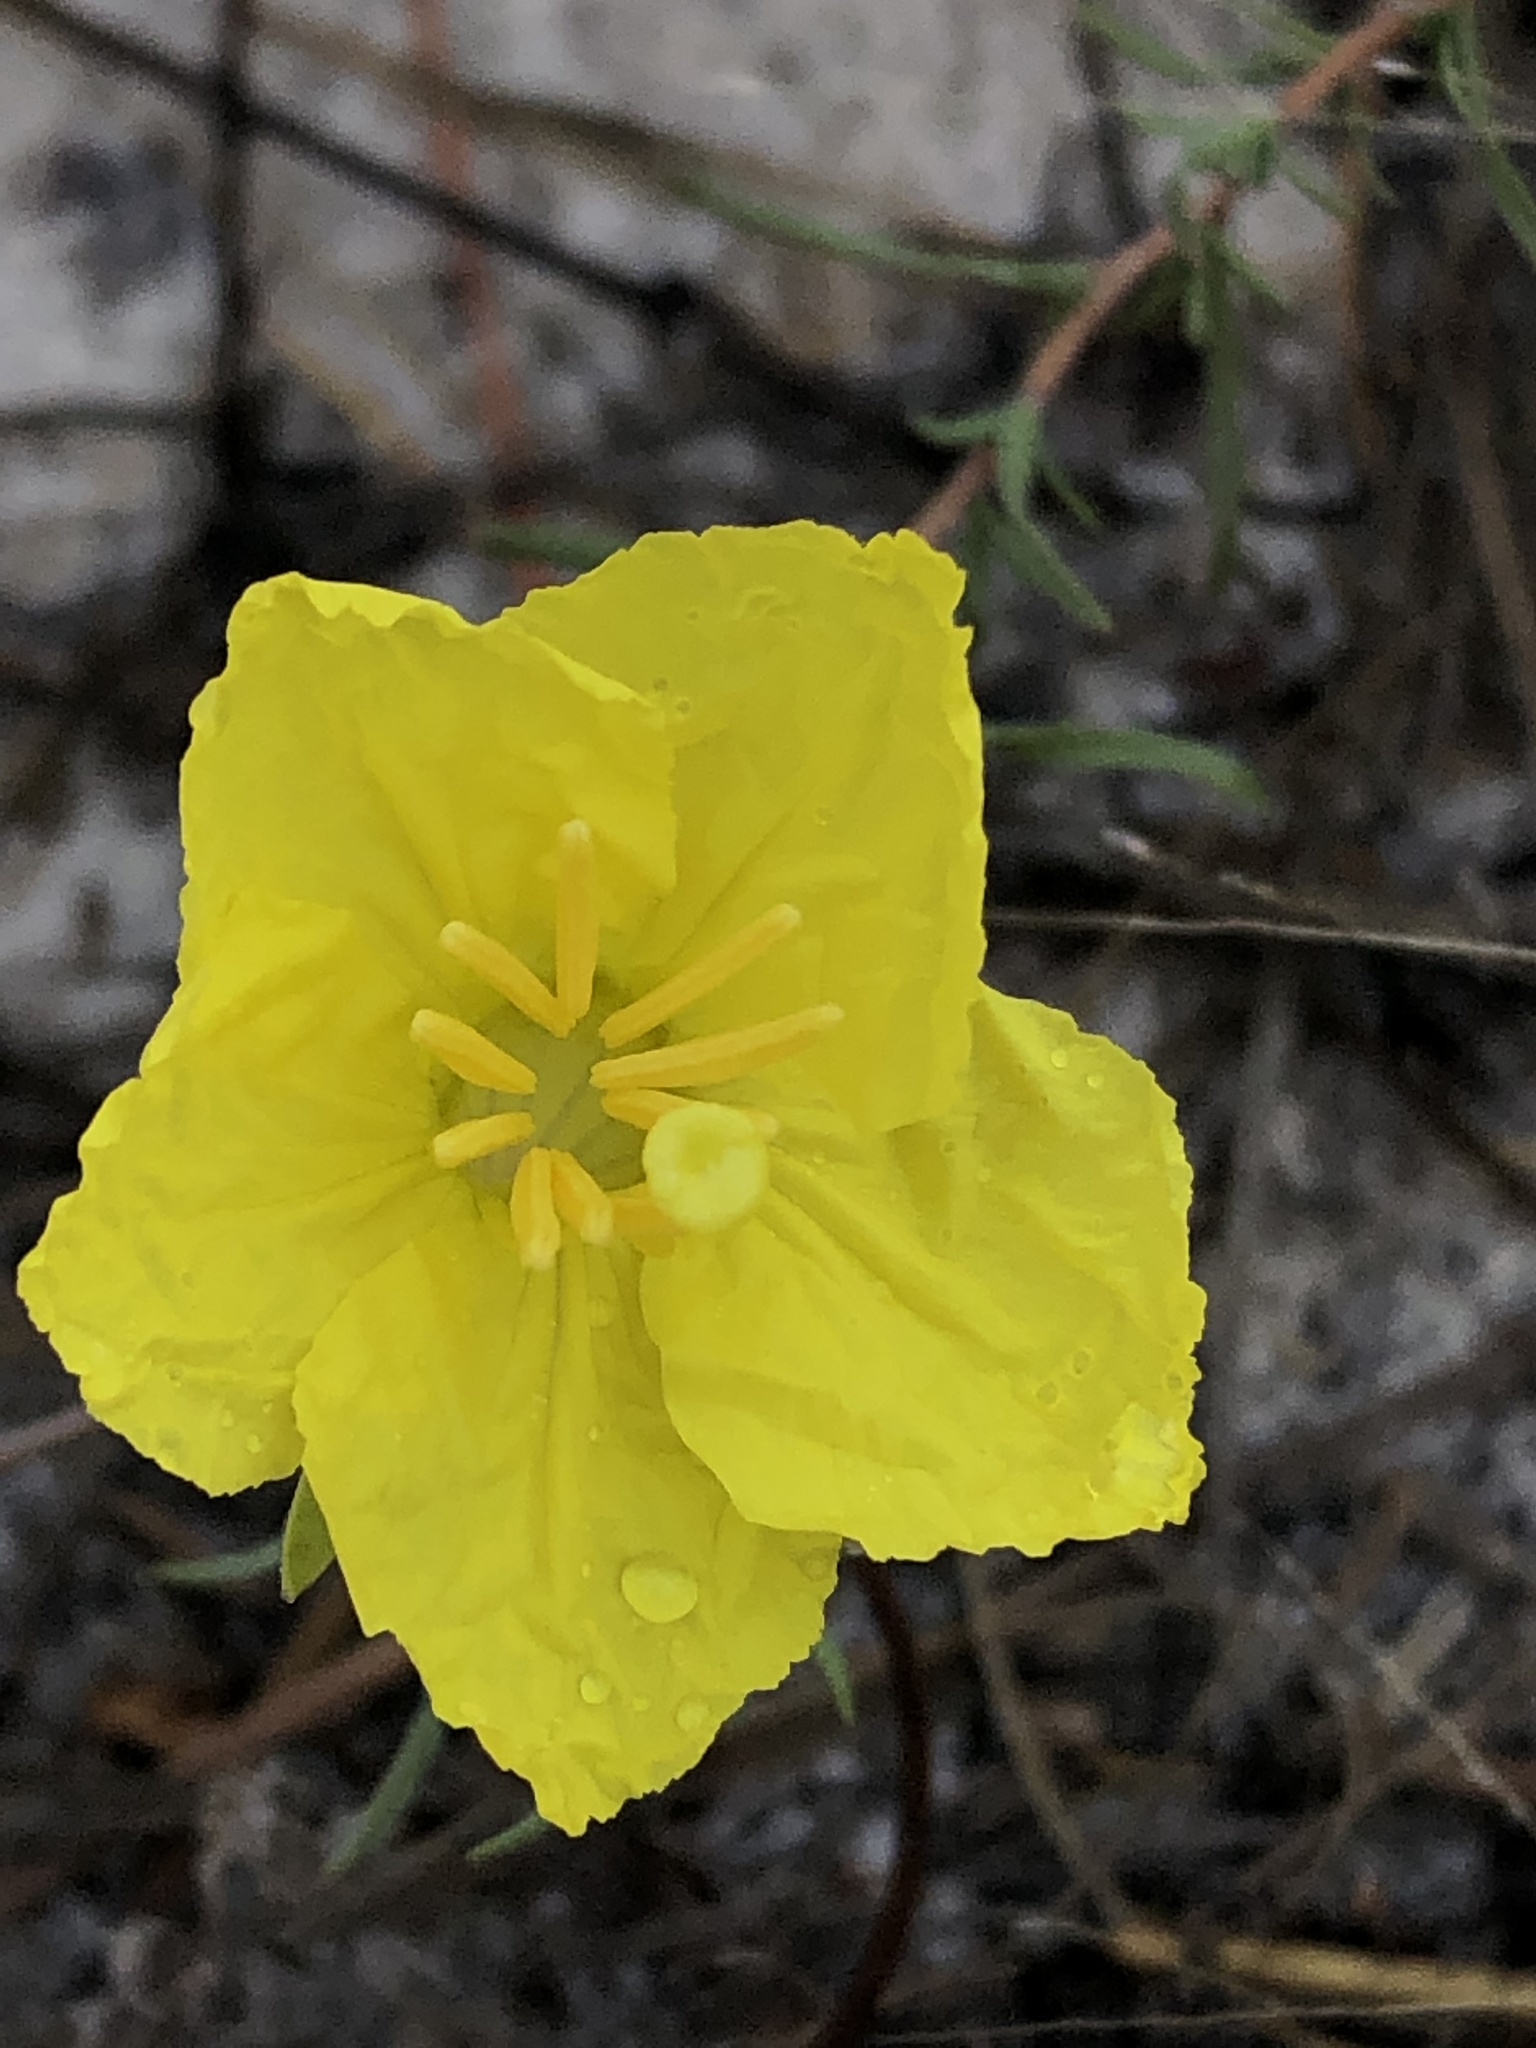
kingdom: Plantae
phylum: Tracheophyta
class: Magnoliopsida
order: Myrtales
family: Onagraceae
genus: Oenothera
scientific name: Oenothera hartwegii
